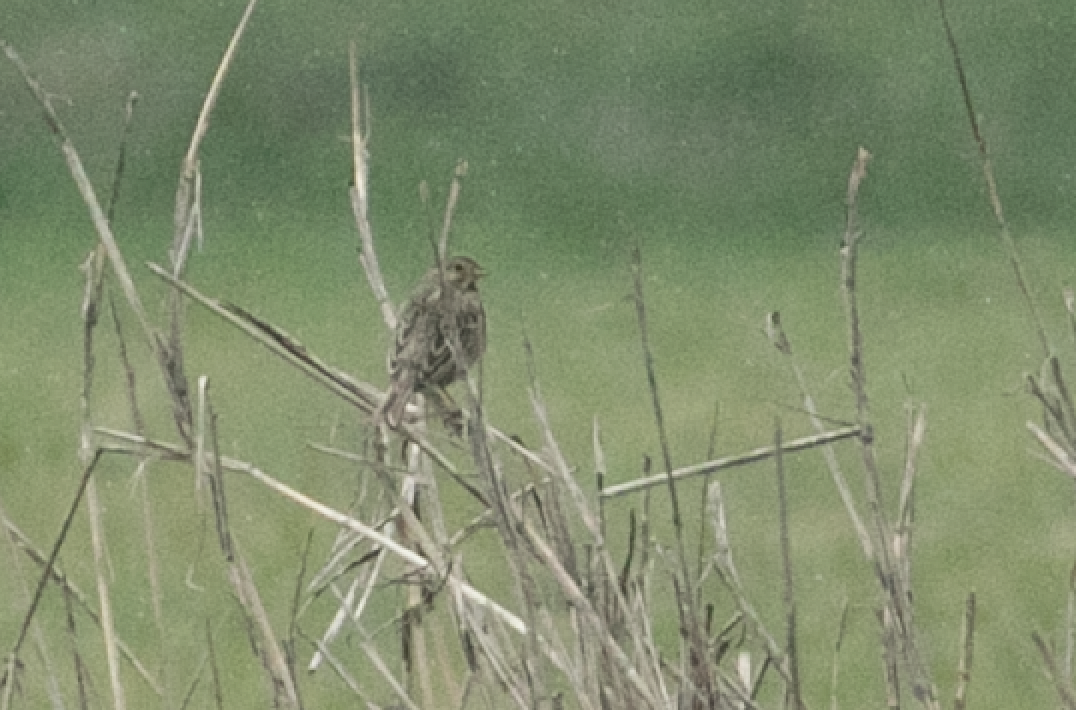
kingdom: Animalia
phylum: Chordata
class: Aves
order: Passeriformes
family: Emberizidae
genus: Emberiza
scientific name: Emberiza calandra
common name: Corn bunting
